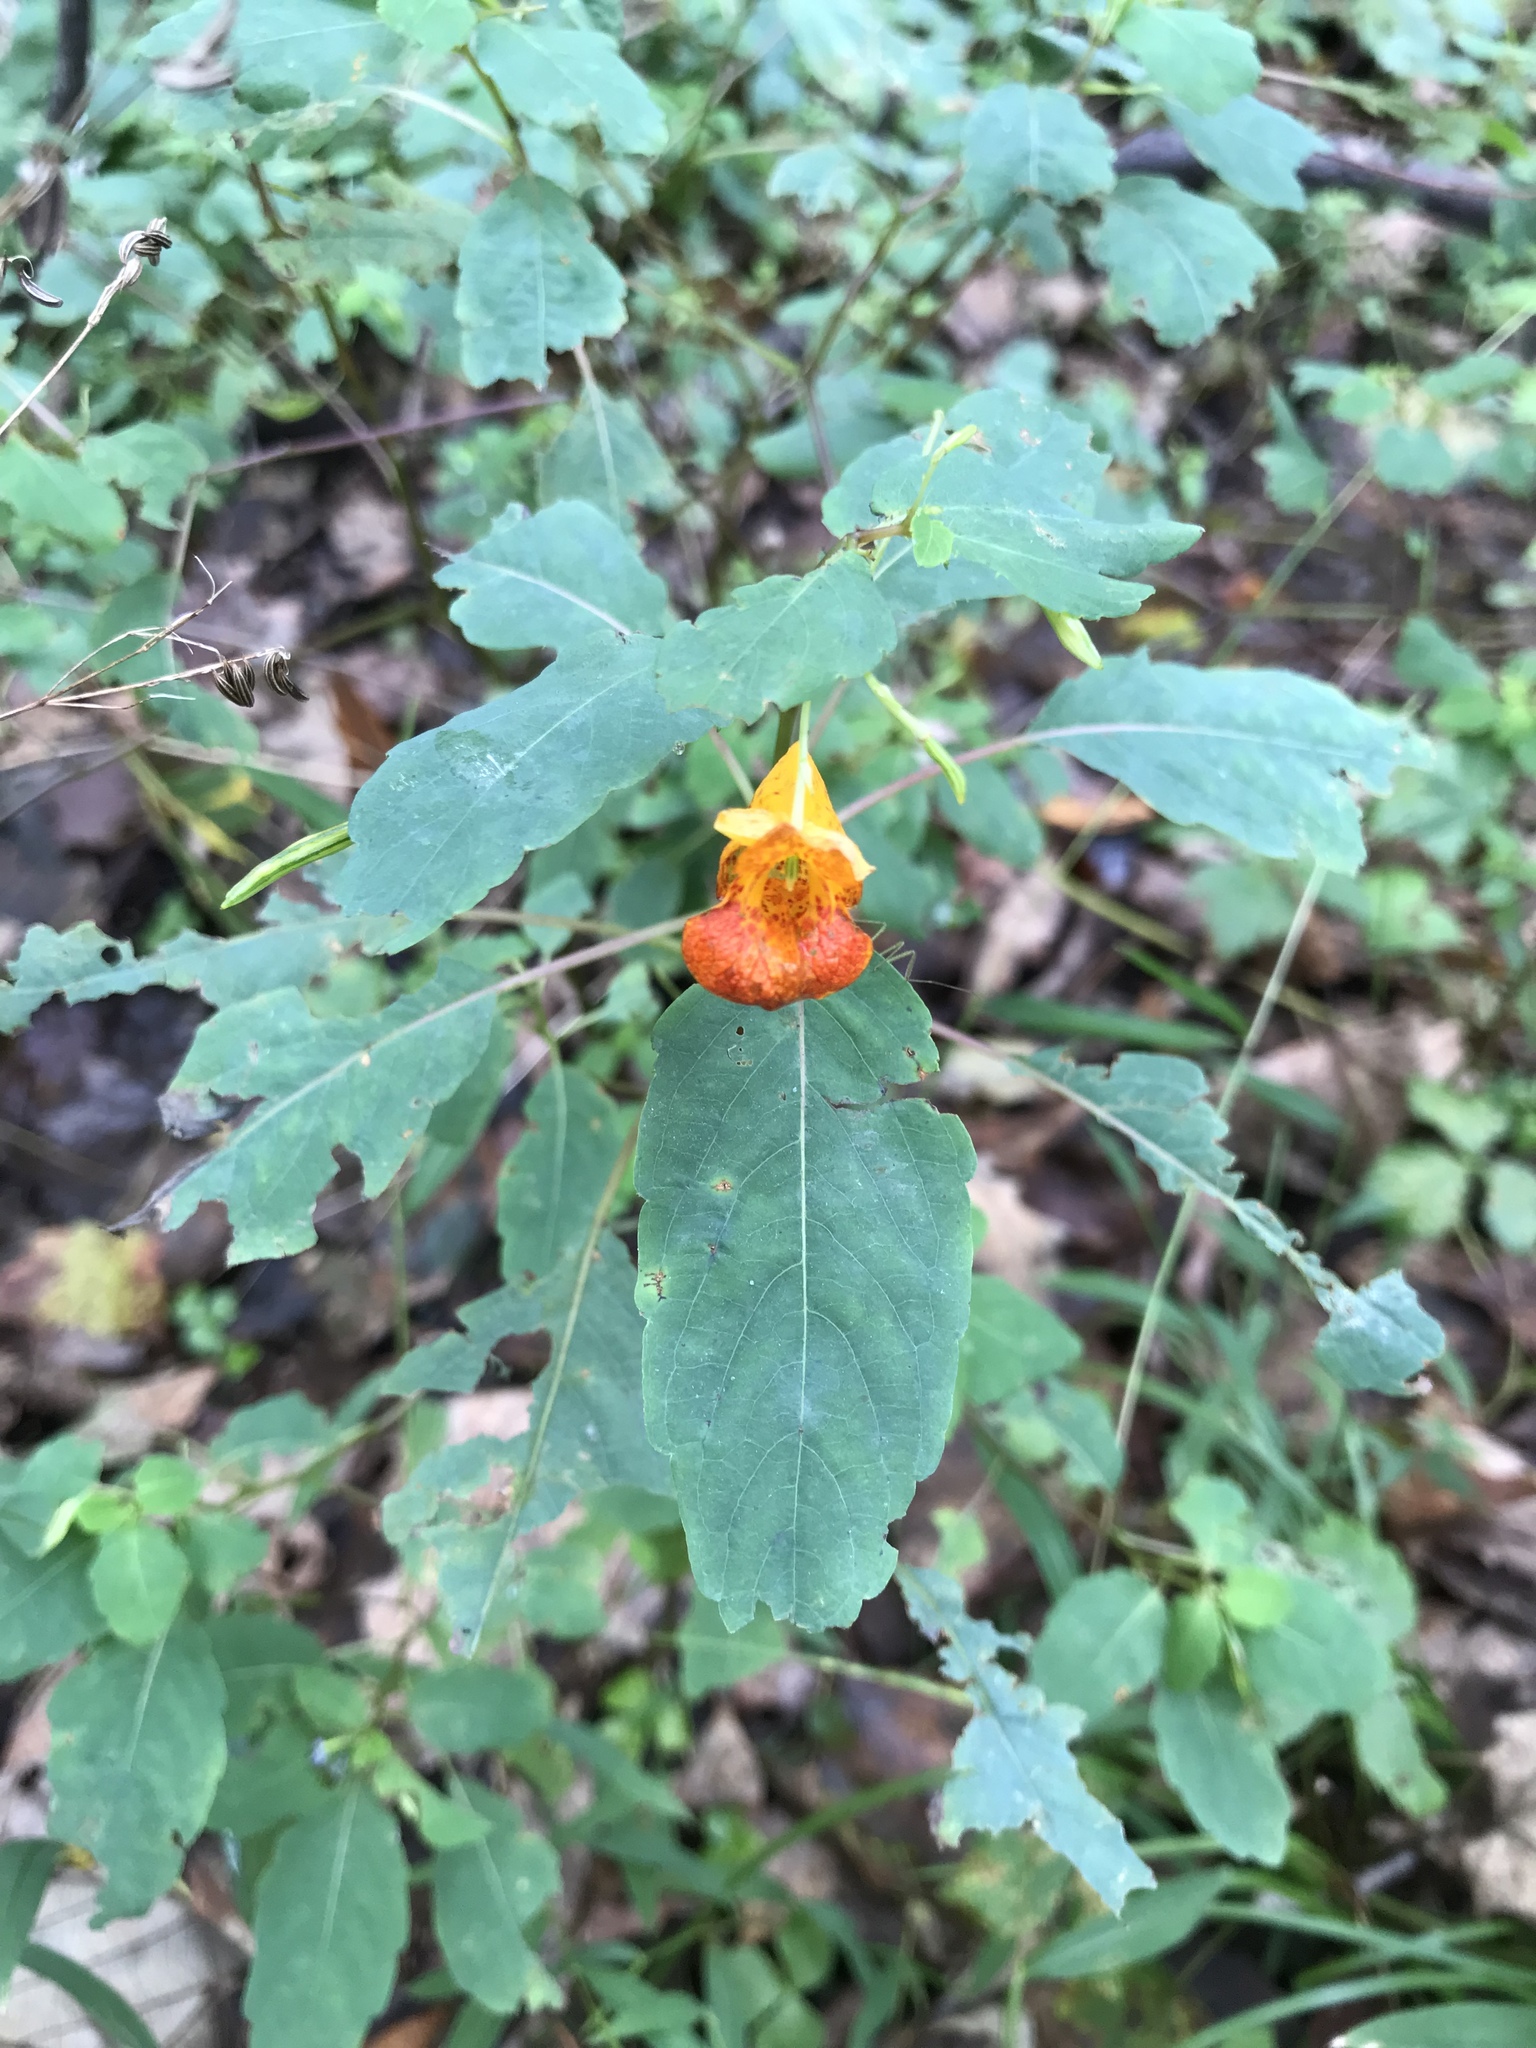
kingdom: Plantae
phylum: Tracheophyta
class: Magnoliopsida
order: Ericales
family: Balsaminaceae
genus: Impatiens
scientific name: Impatiens capensis
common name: Orange balsam
